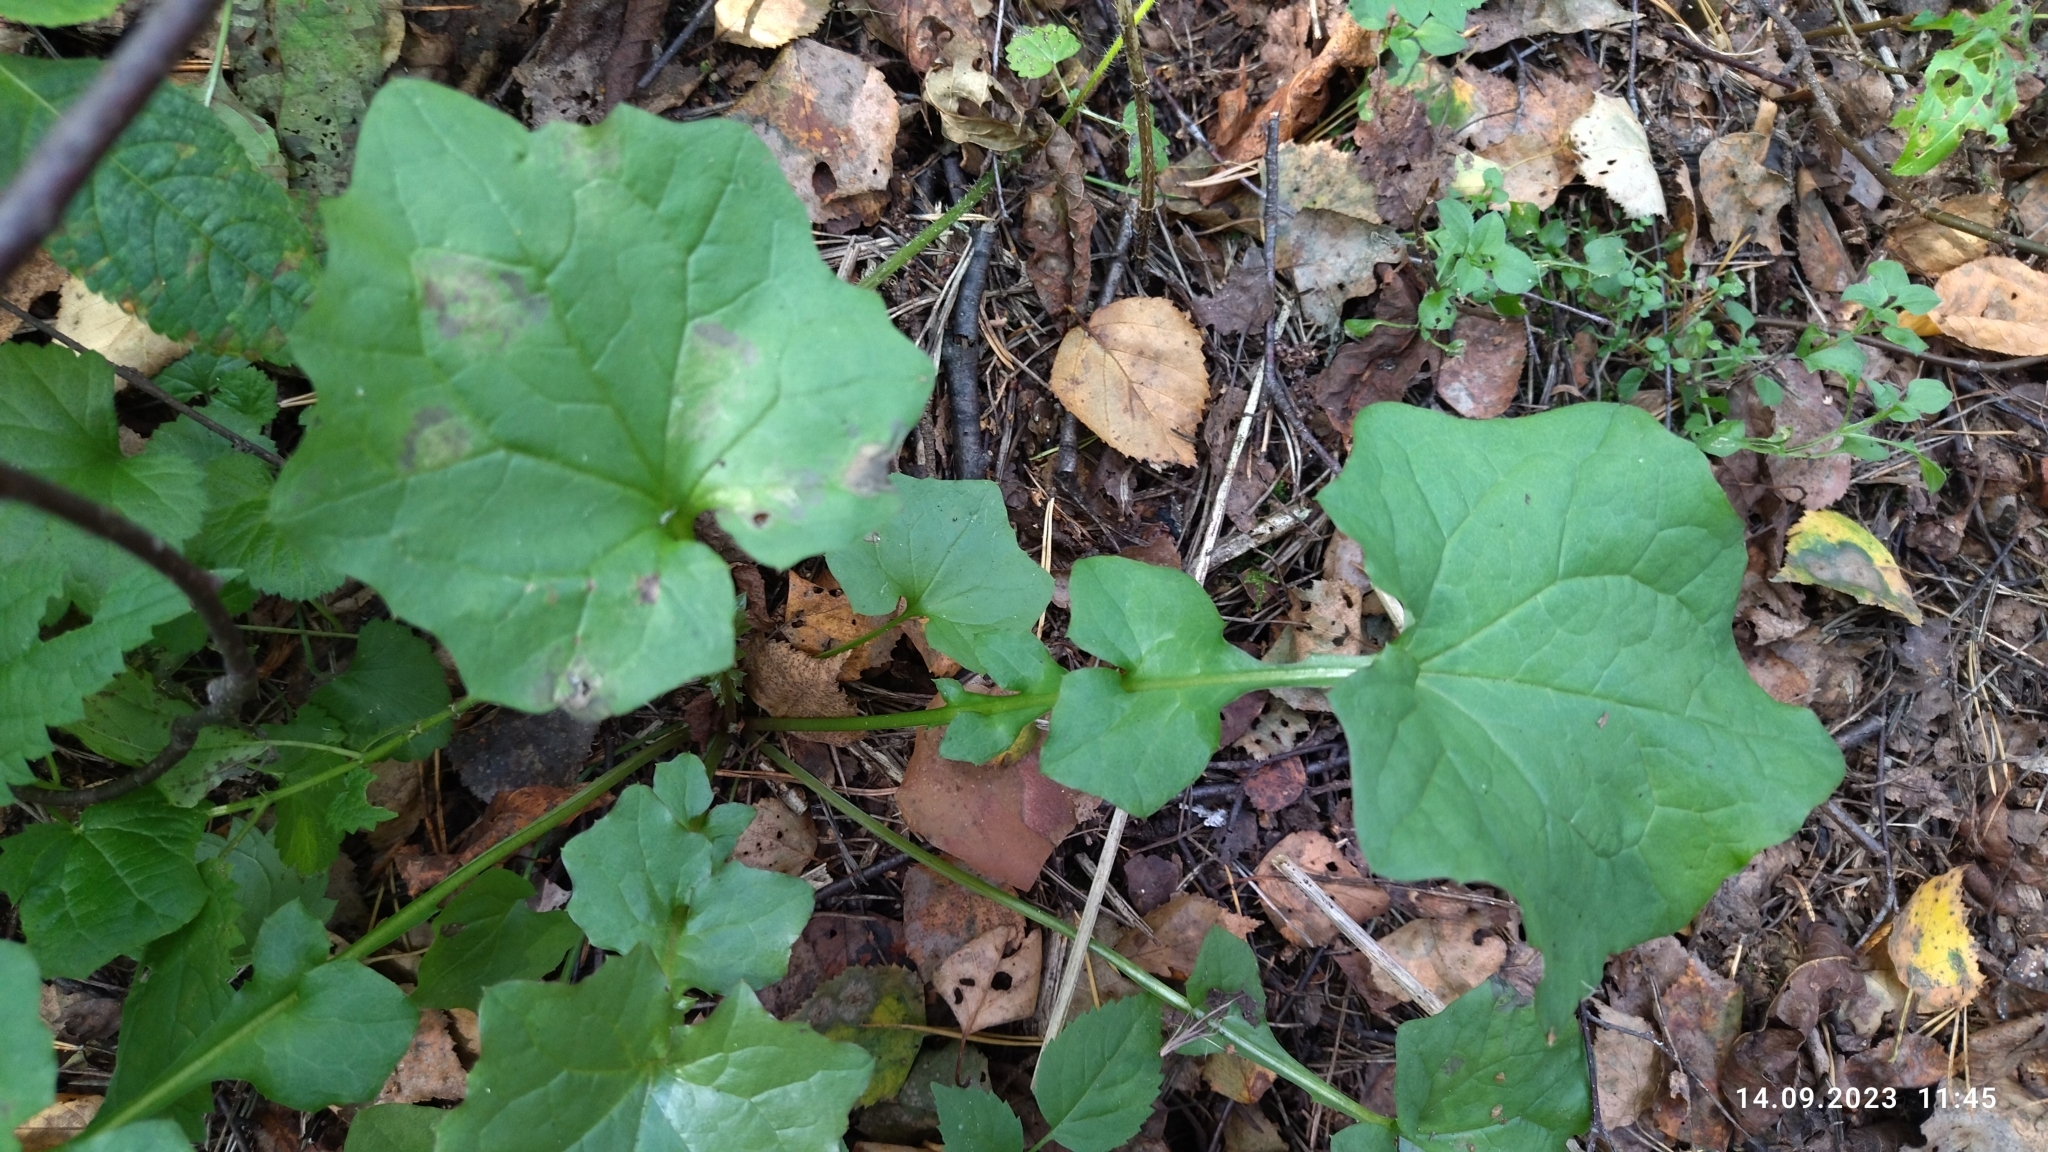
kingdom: Plantae
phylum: Tracheophyta
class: Magnoliopsida
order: Asterales
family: Asteraceae
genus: Mycelis
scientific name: Mycelis muralis
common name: Wall lettuce
